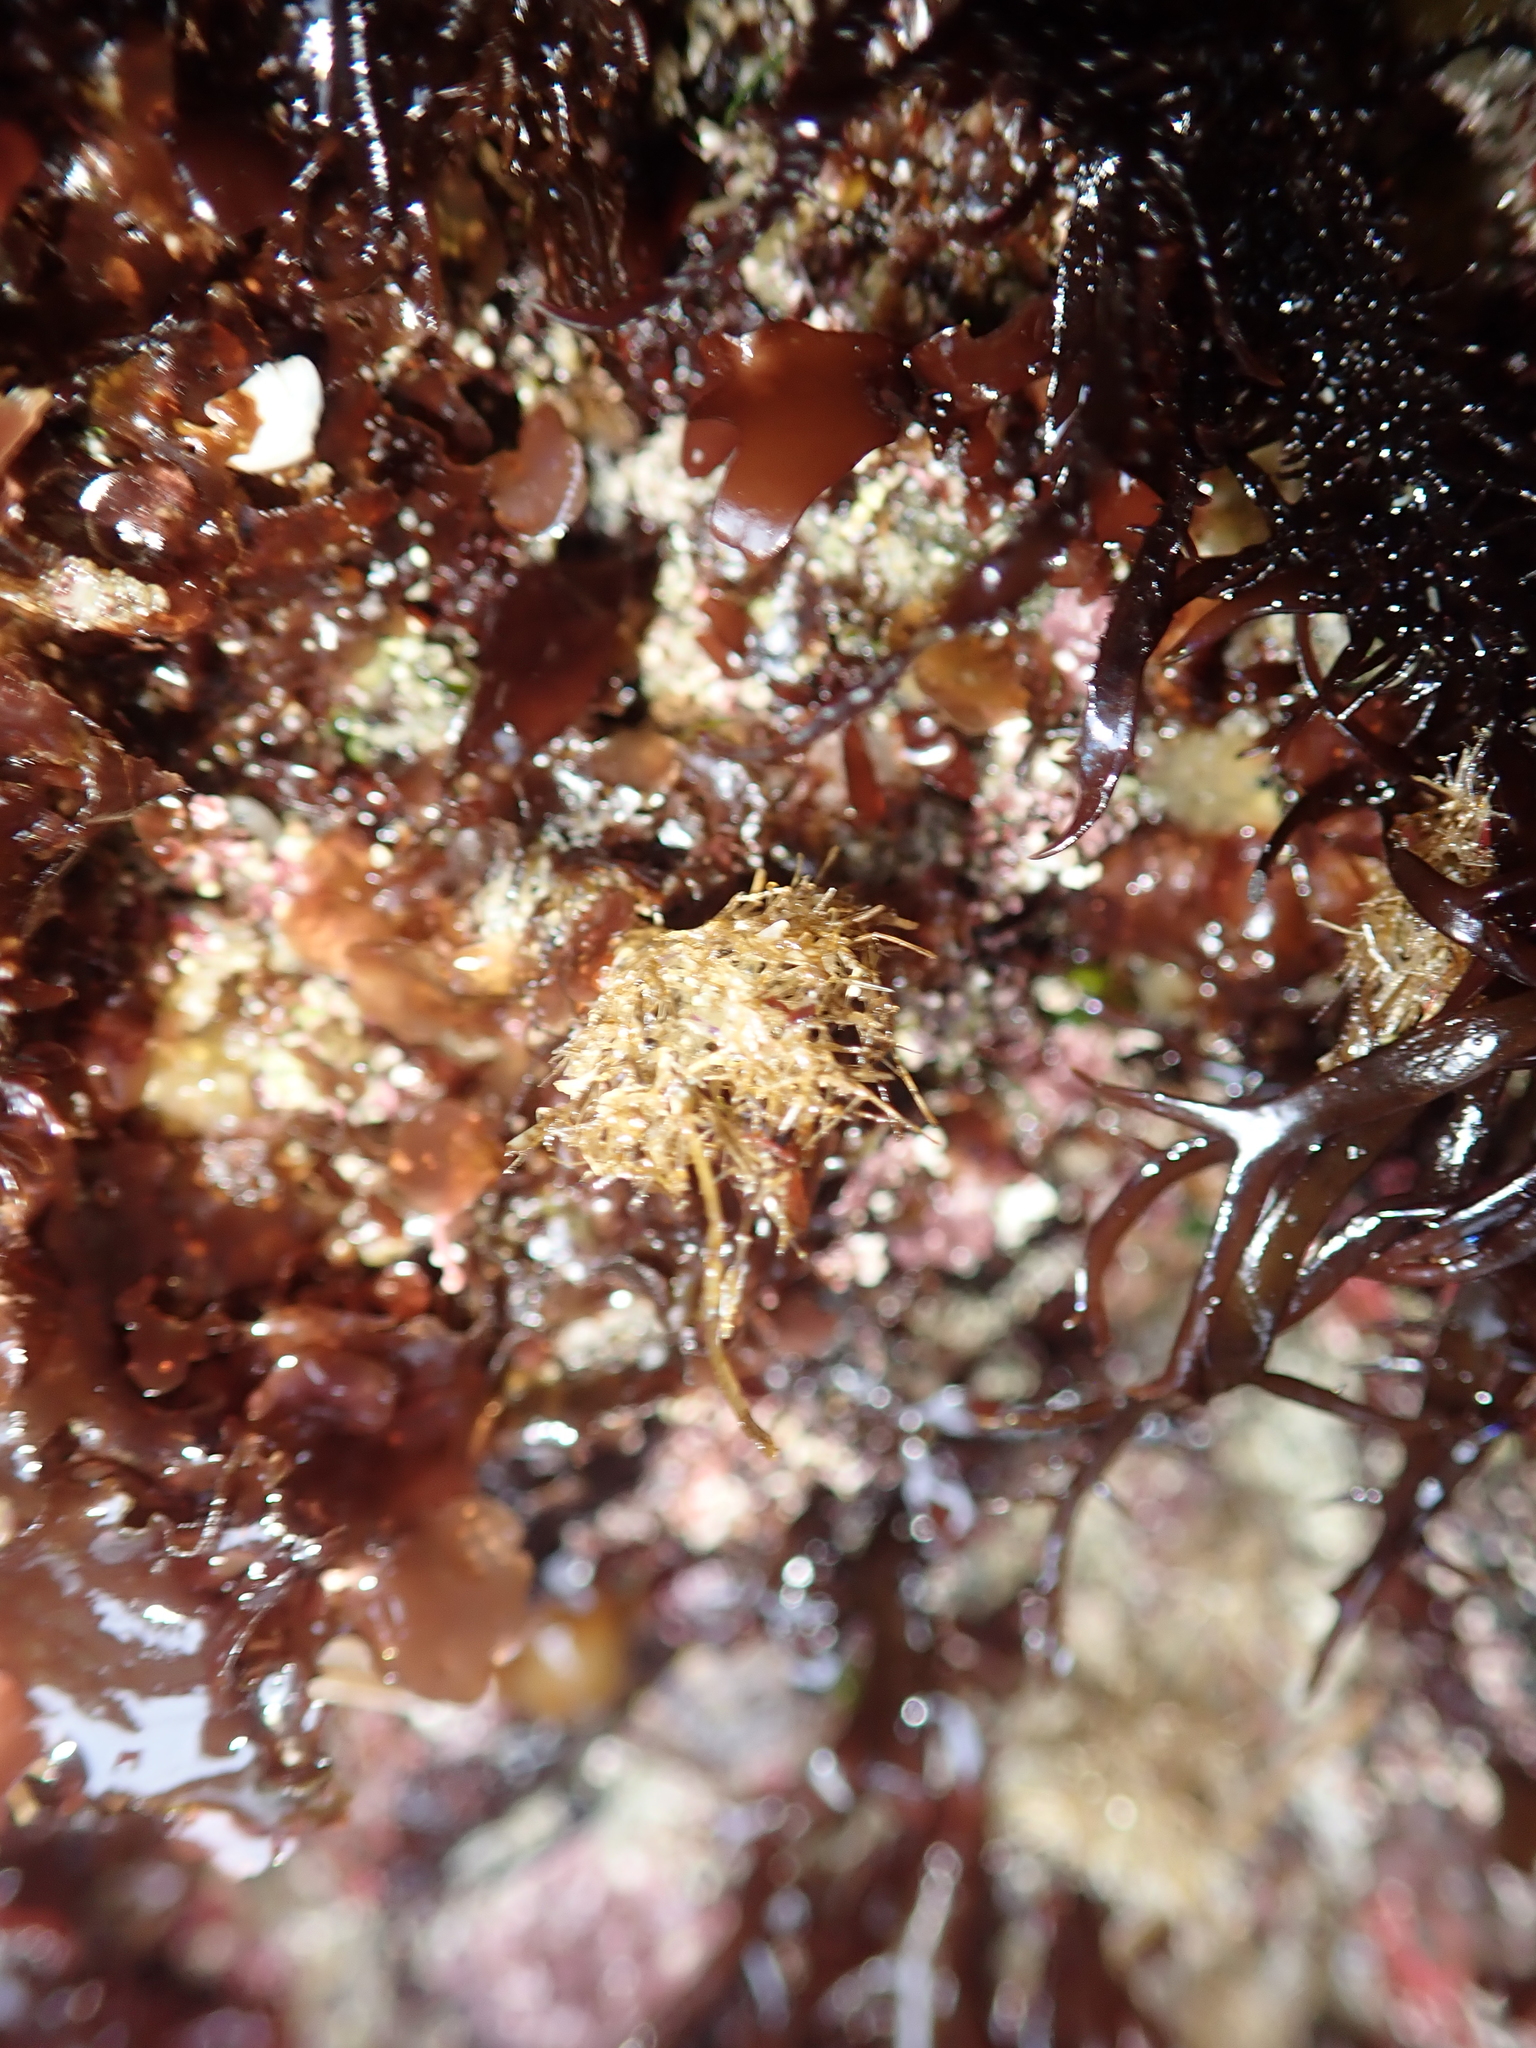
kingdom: Animalia
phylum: Annelida
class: Polychaeta
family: Terebellidae
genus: Pista
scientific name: Pista elongata
